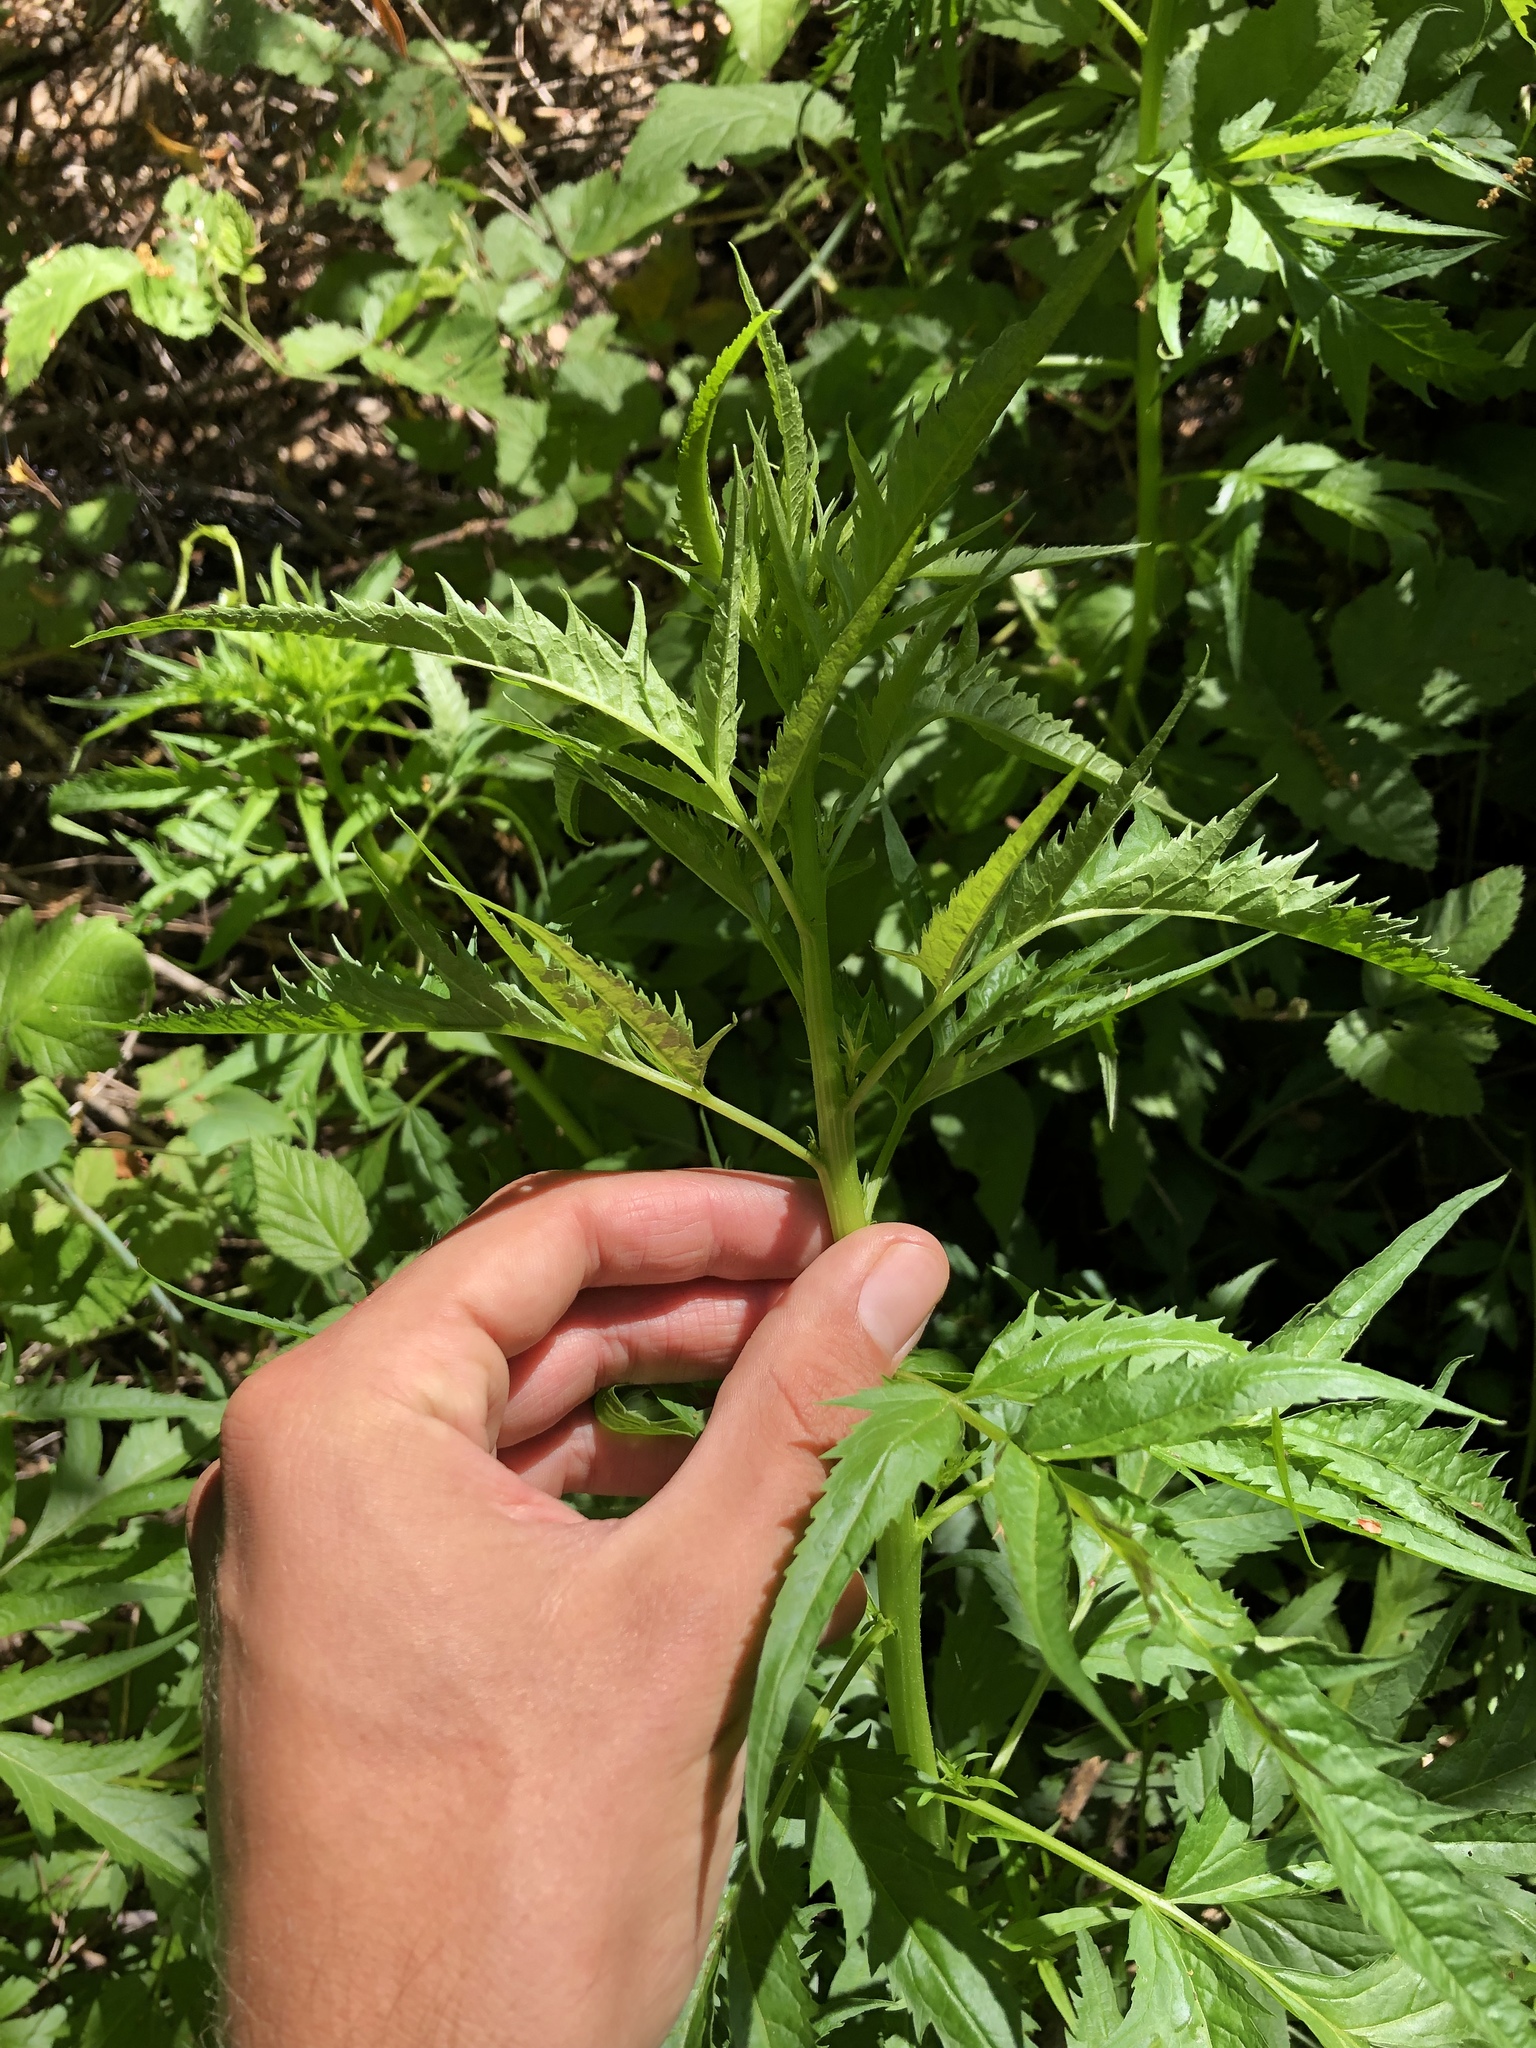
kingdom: Plantae
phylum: Tracheophyta
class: Magnoliopsida
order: Cucurbitales
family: Datiscaceae
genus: Datisca
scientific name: Datisca glomerata
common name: Durango-root
